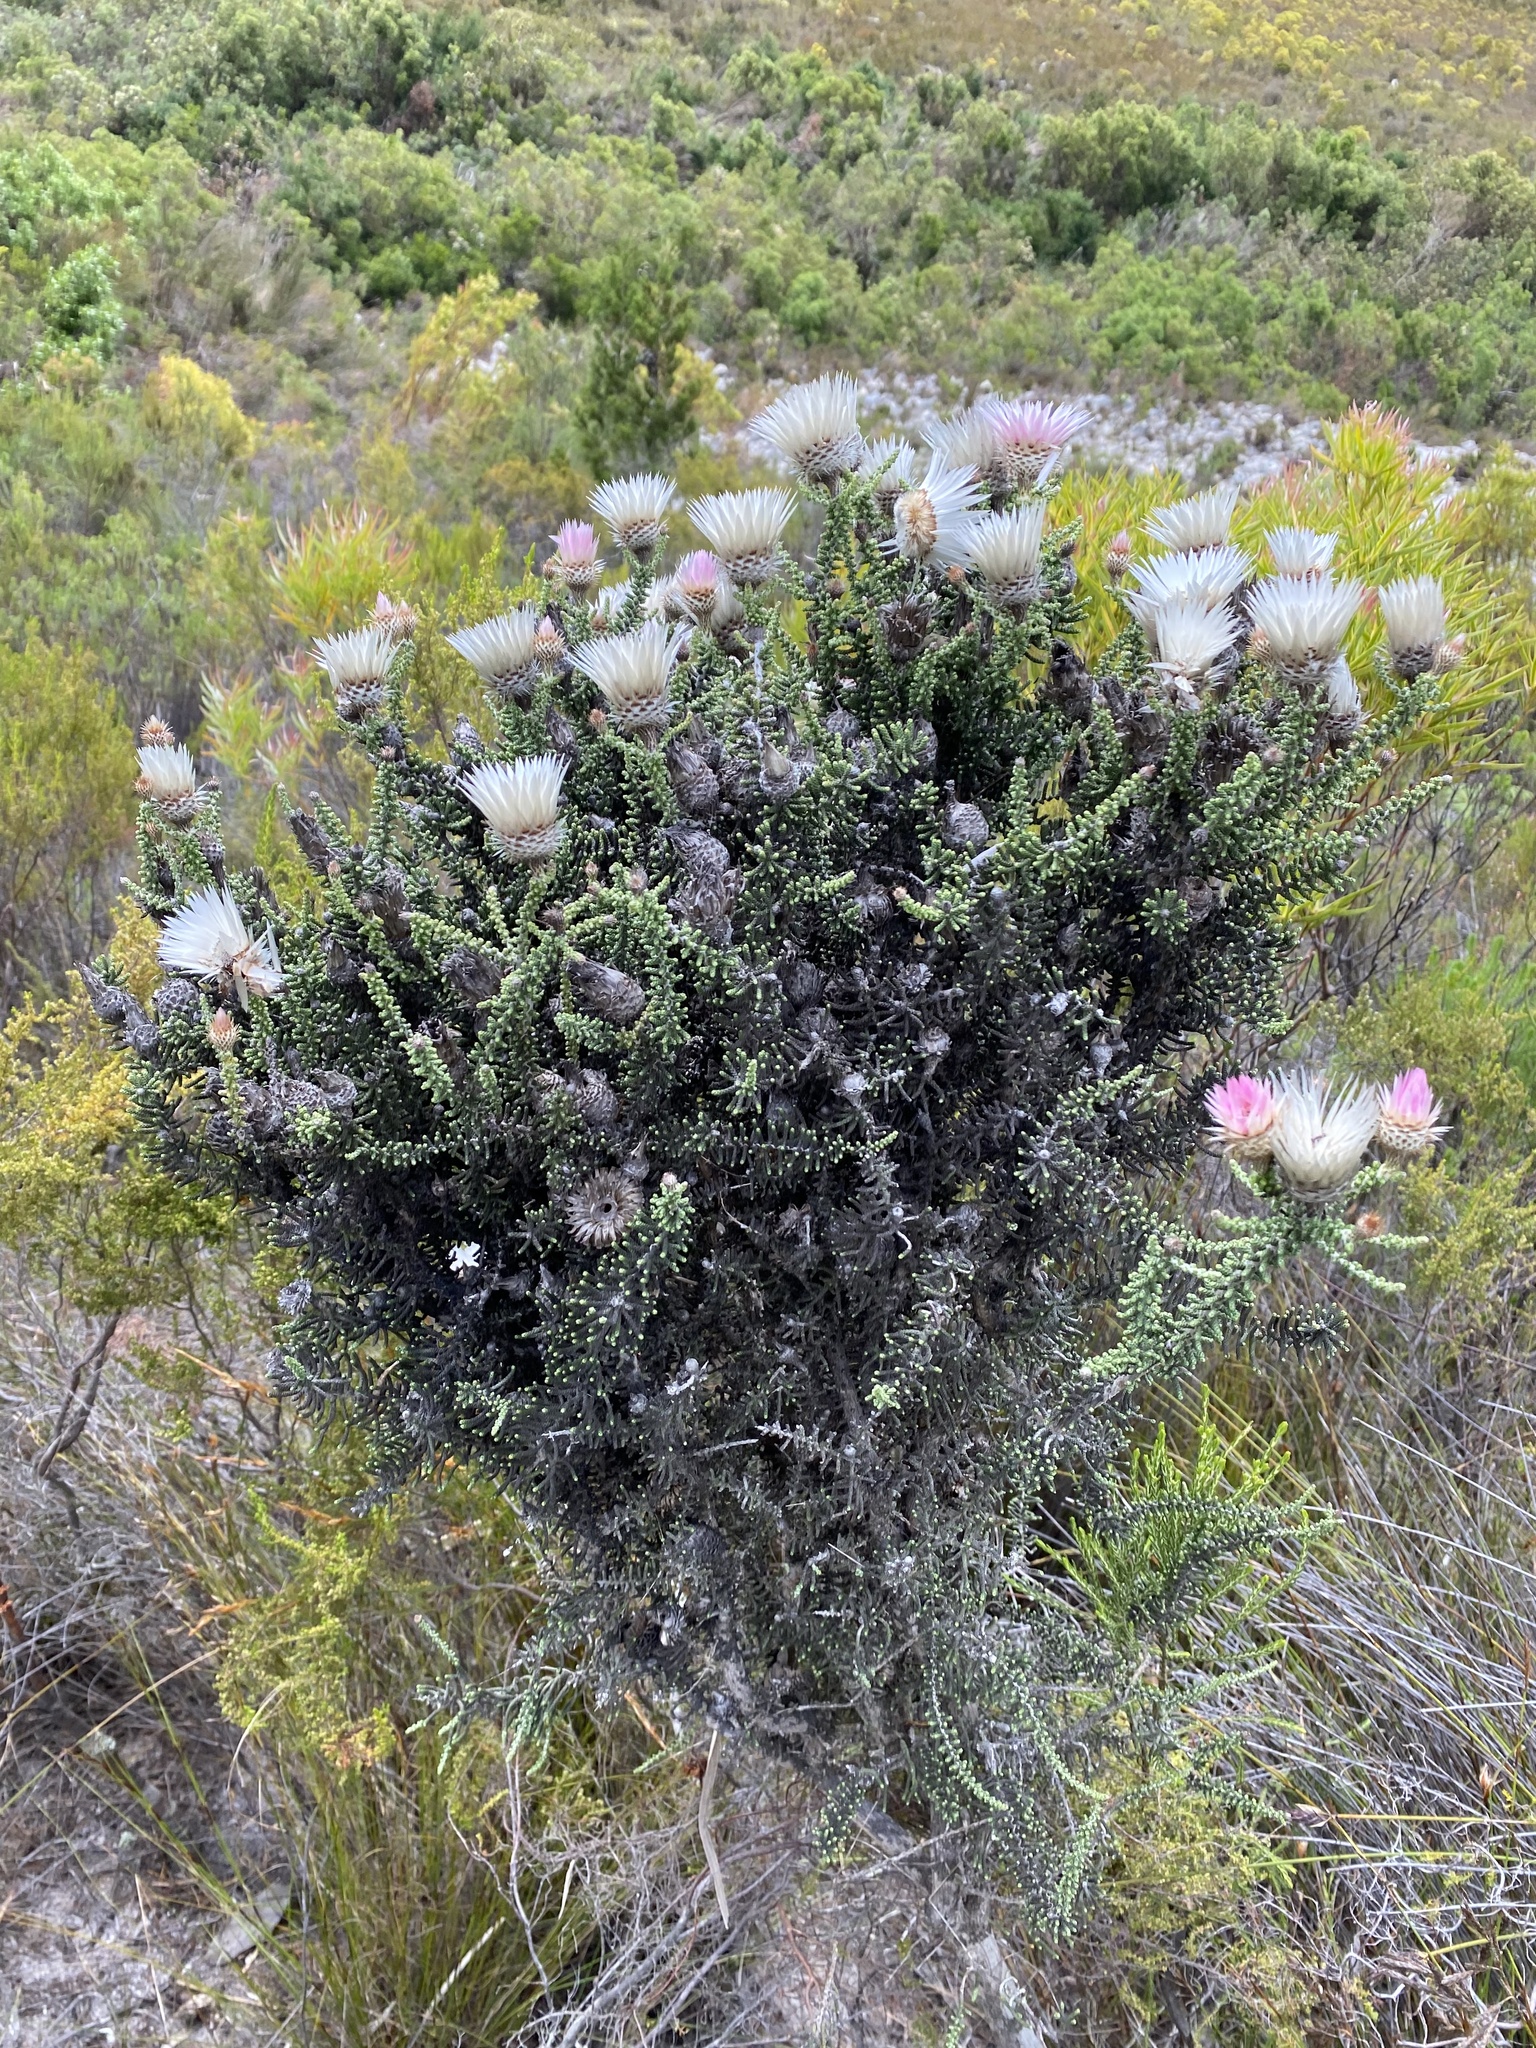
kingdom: Plantae
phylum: Tracheophyta
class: Magnoliopsida
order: Asterales
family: Asteraceae
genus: Phaenocoma
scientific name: Phaenocoma prolifera
